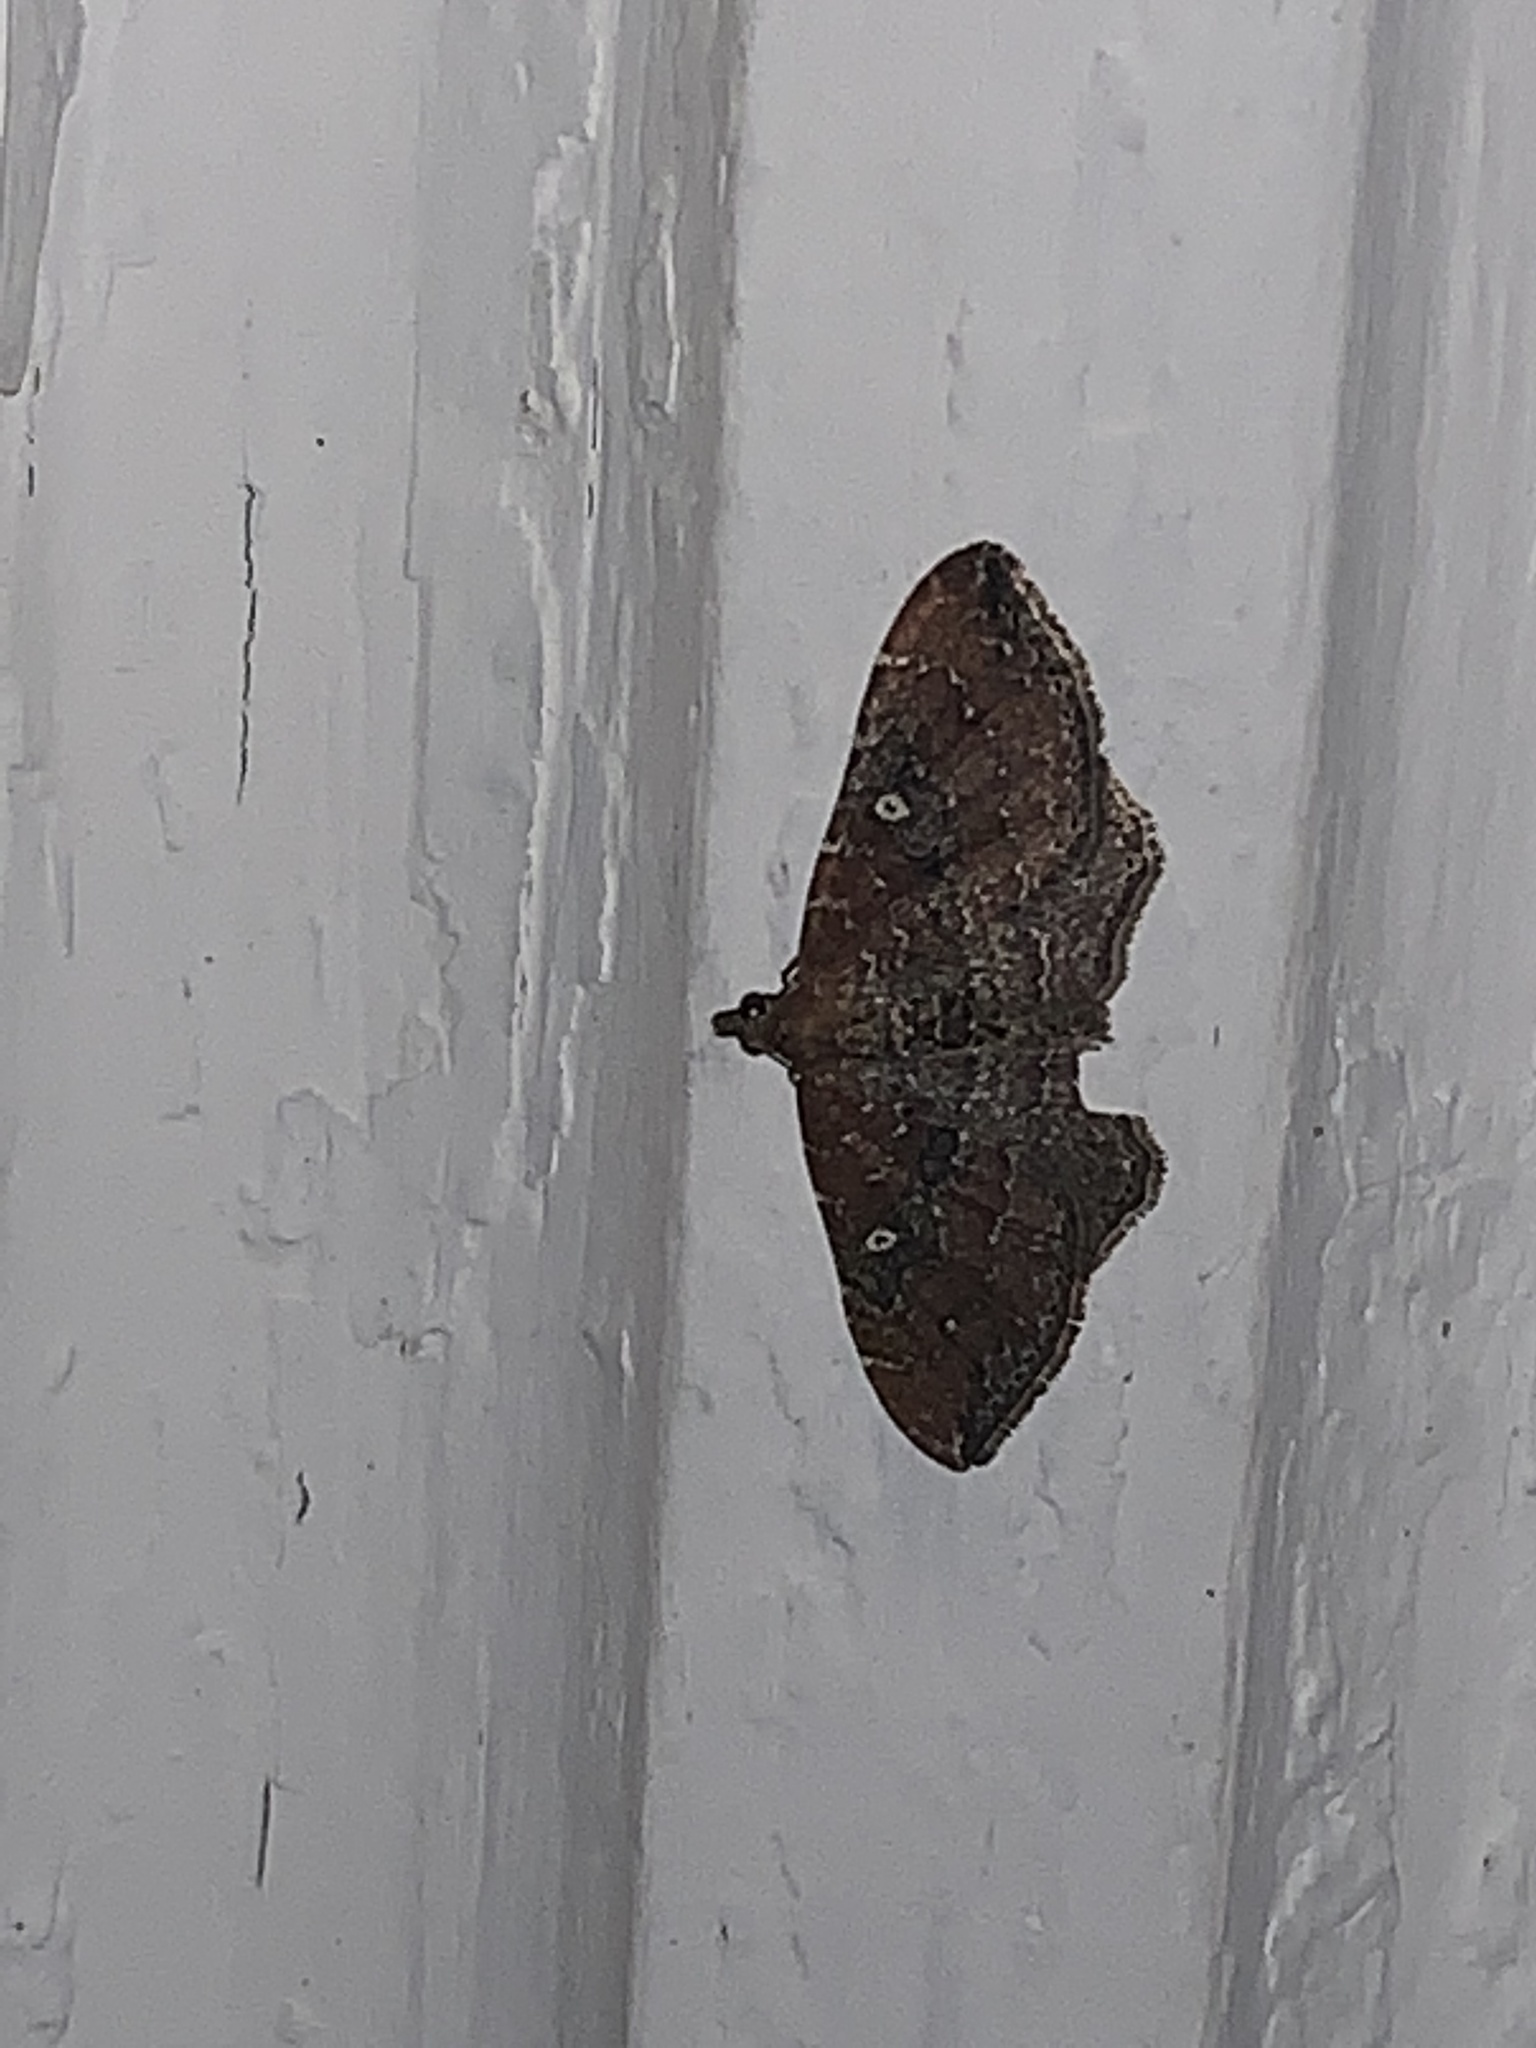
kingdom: Animalia
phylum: Arthropoda
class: Insecta
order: Lepidoptera
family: Geometridae
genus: Orthonama
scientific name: Orthonama obstipata
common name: The gem
